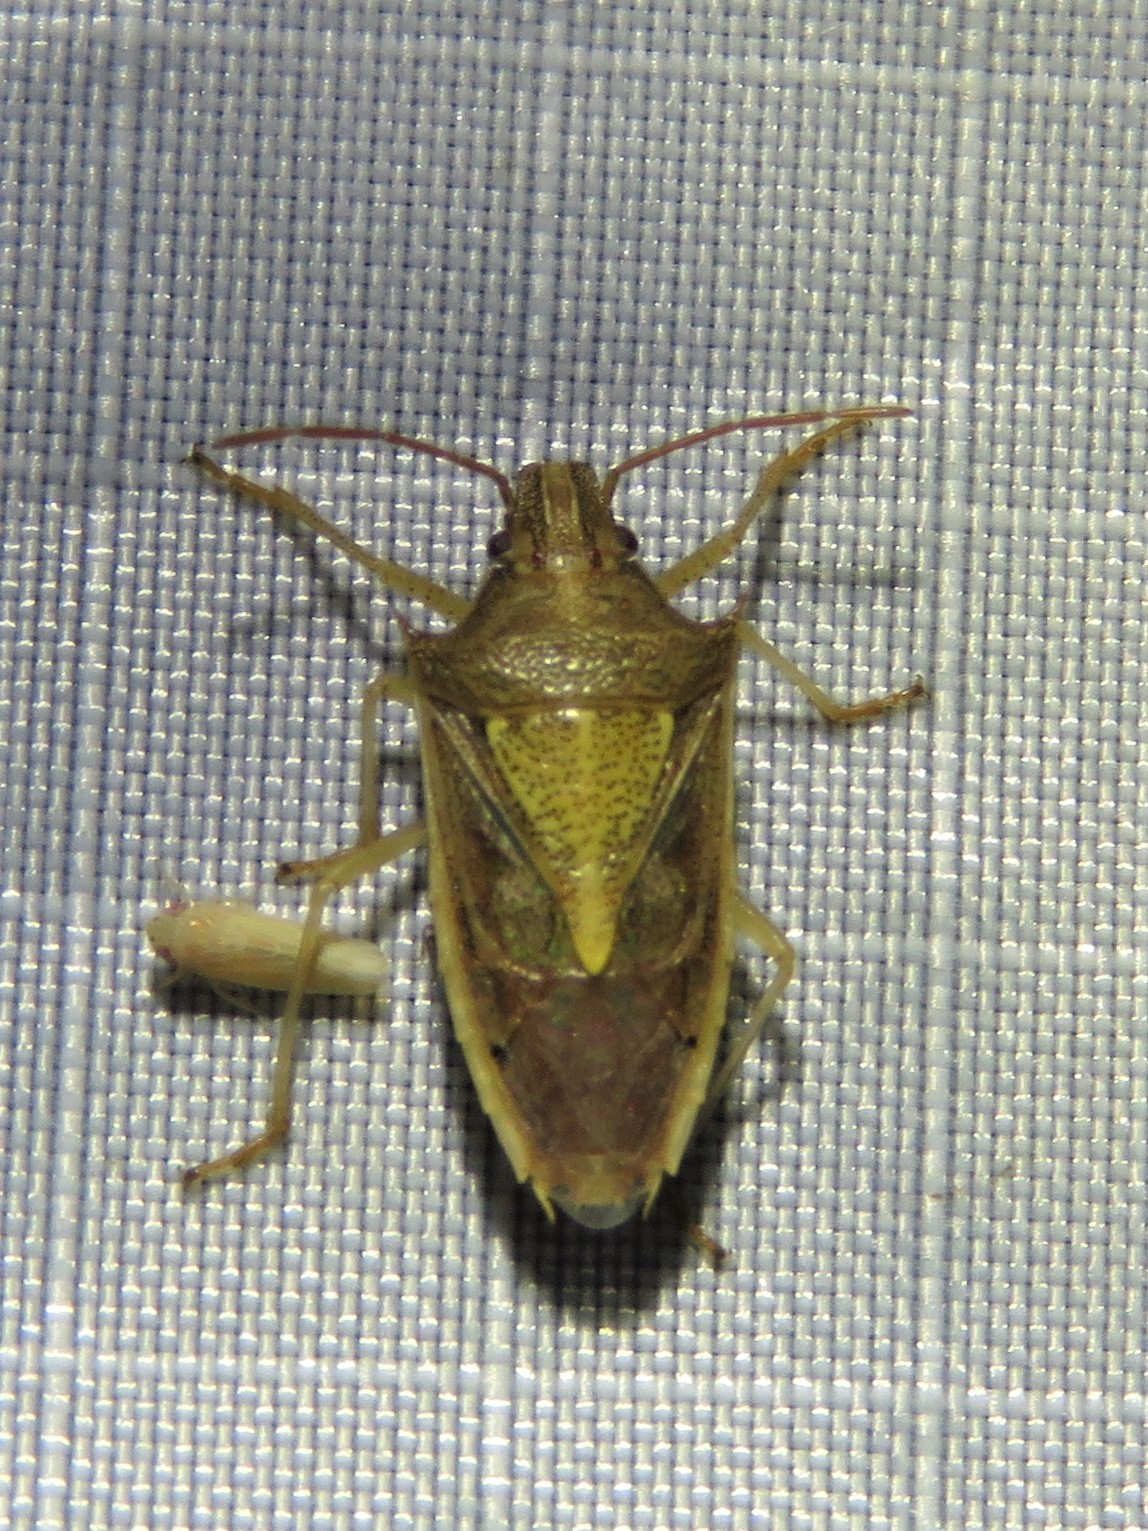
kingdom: Animalia
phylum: Arthropoda
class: Insecta
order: Hemiptera
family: Pentatomidae
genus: Oebalus
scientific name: Oebalus pugnax
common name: Rice stink bug
